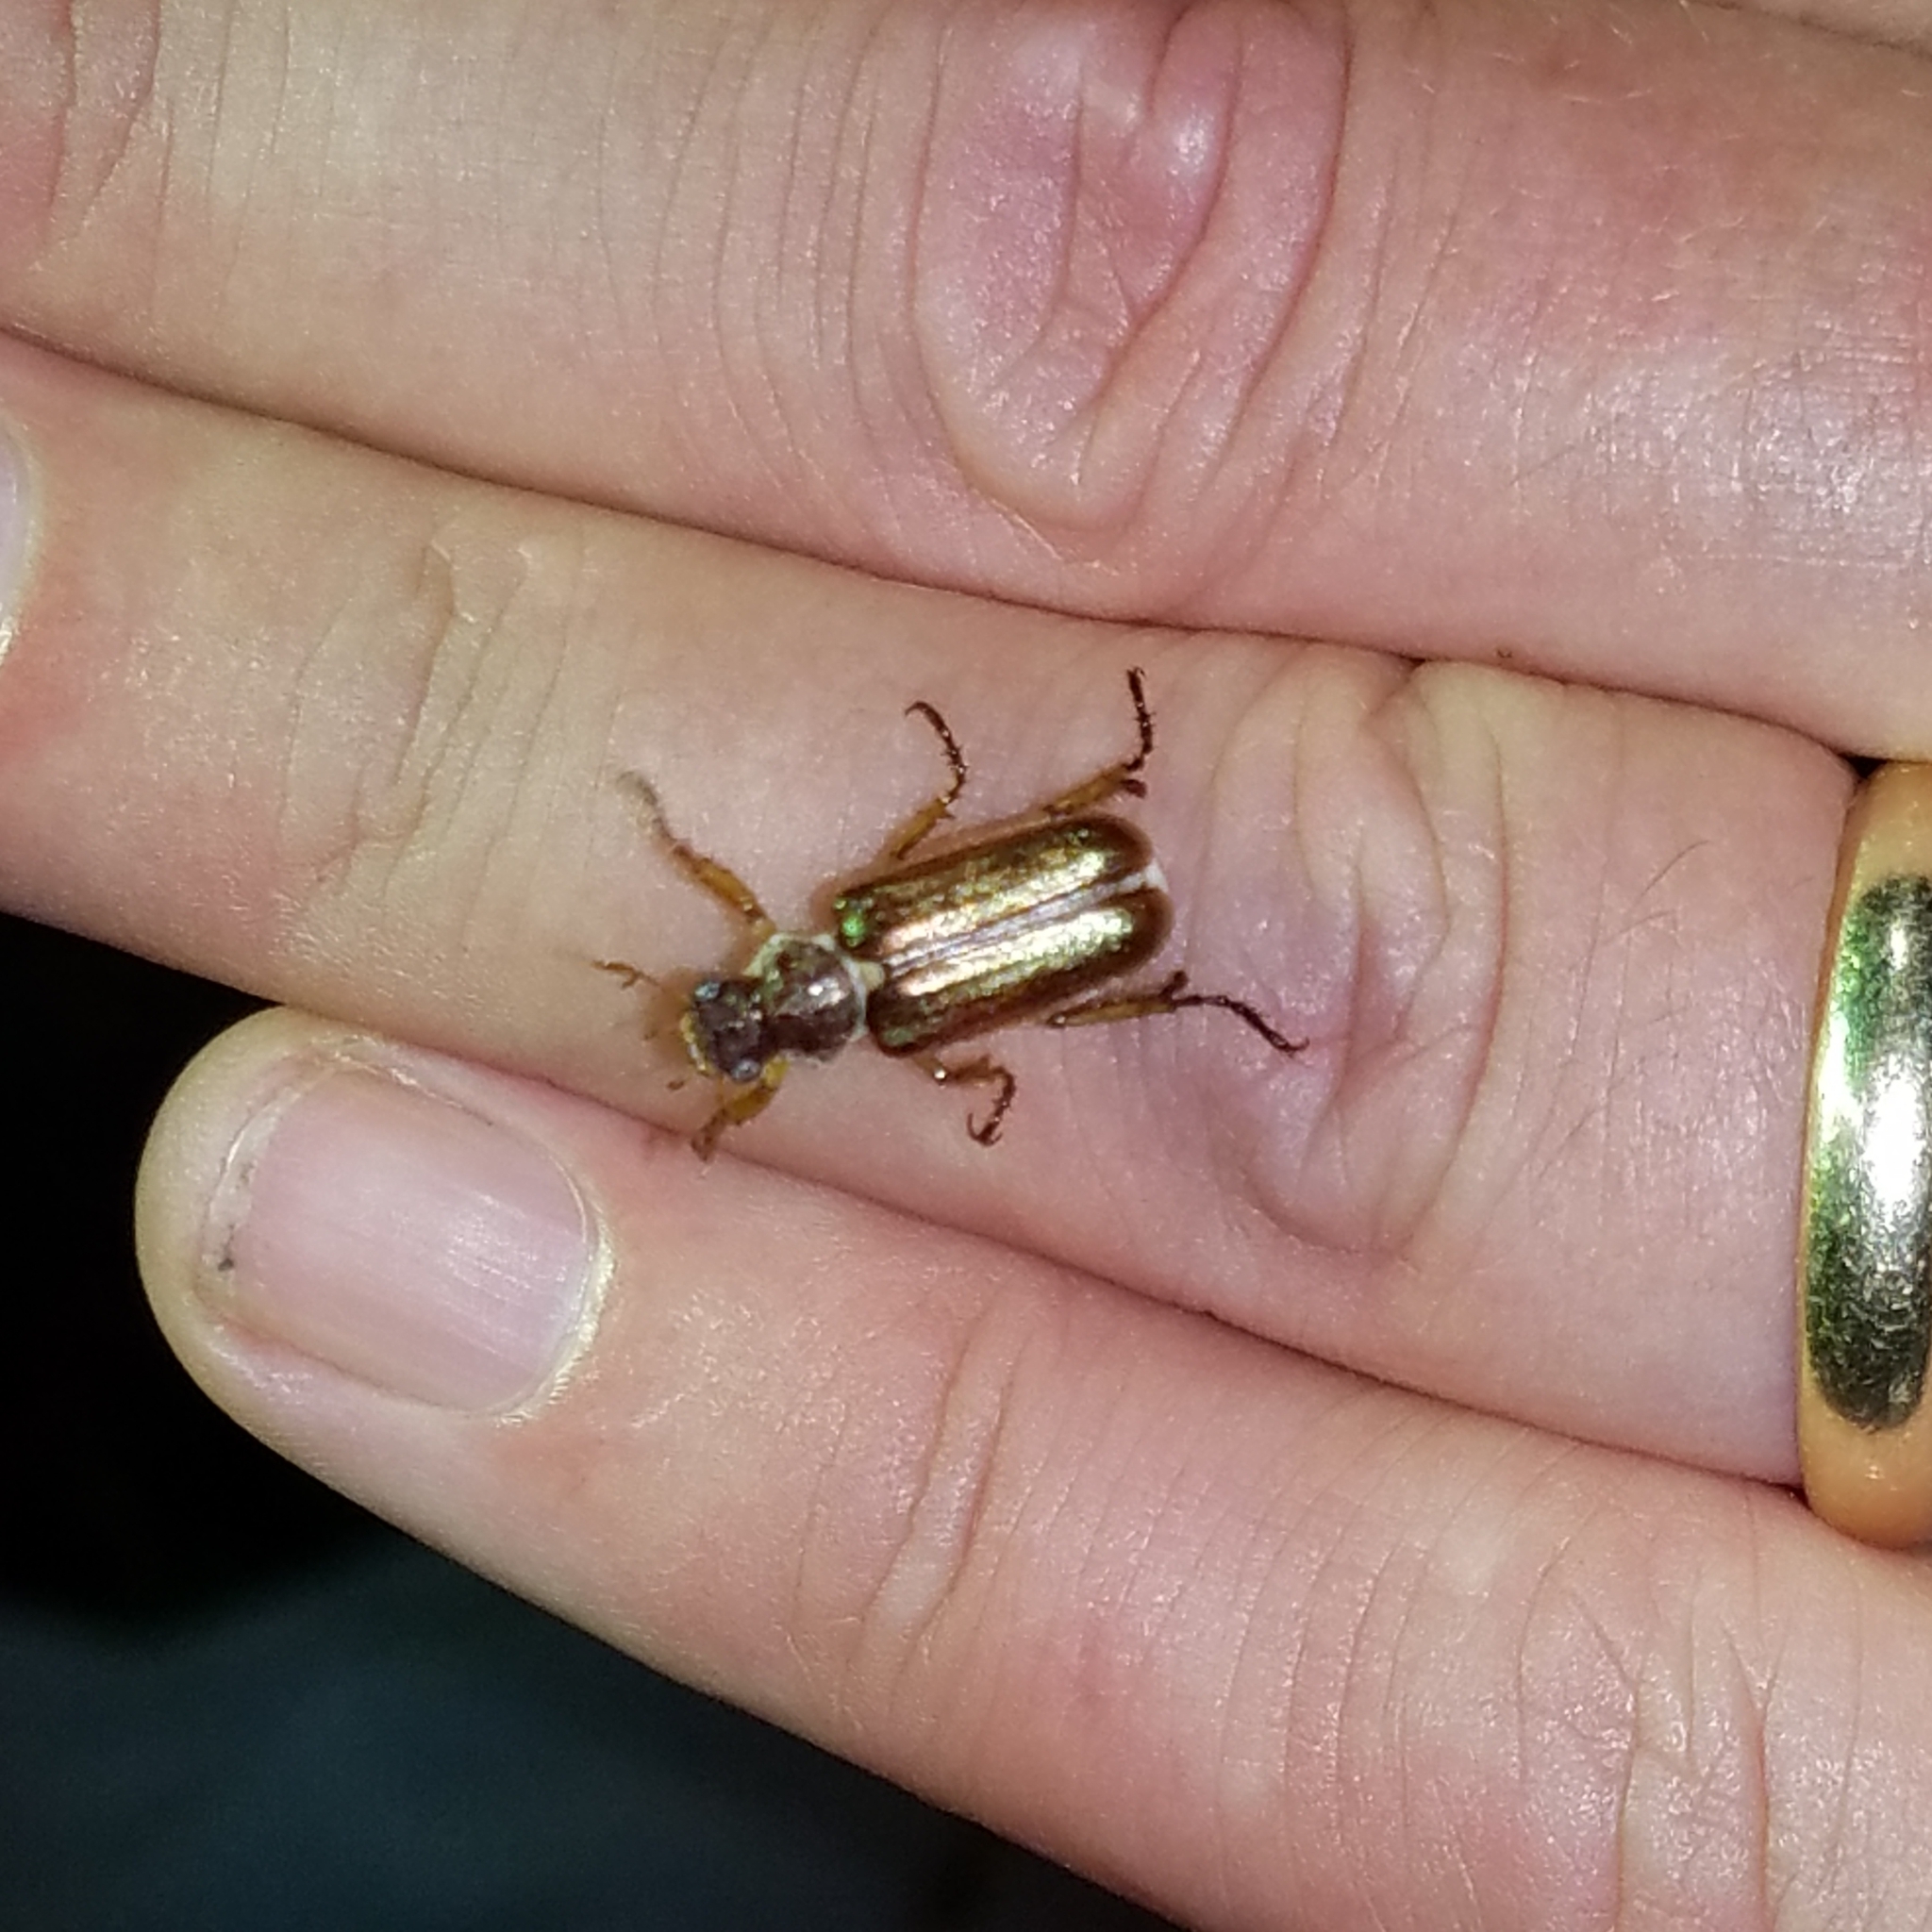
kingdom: Animalia
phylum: Arthropoda
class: Insecta
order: Coleoptera
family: Scarabaeidae
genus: Dichelonyx
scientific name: Dichelonyx albicollis
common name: White-necked pine-beetle
